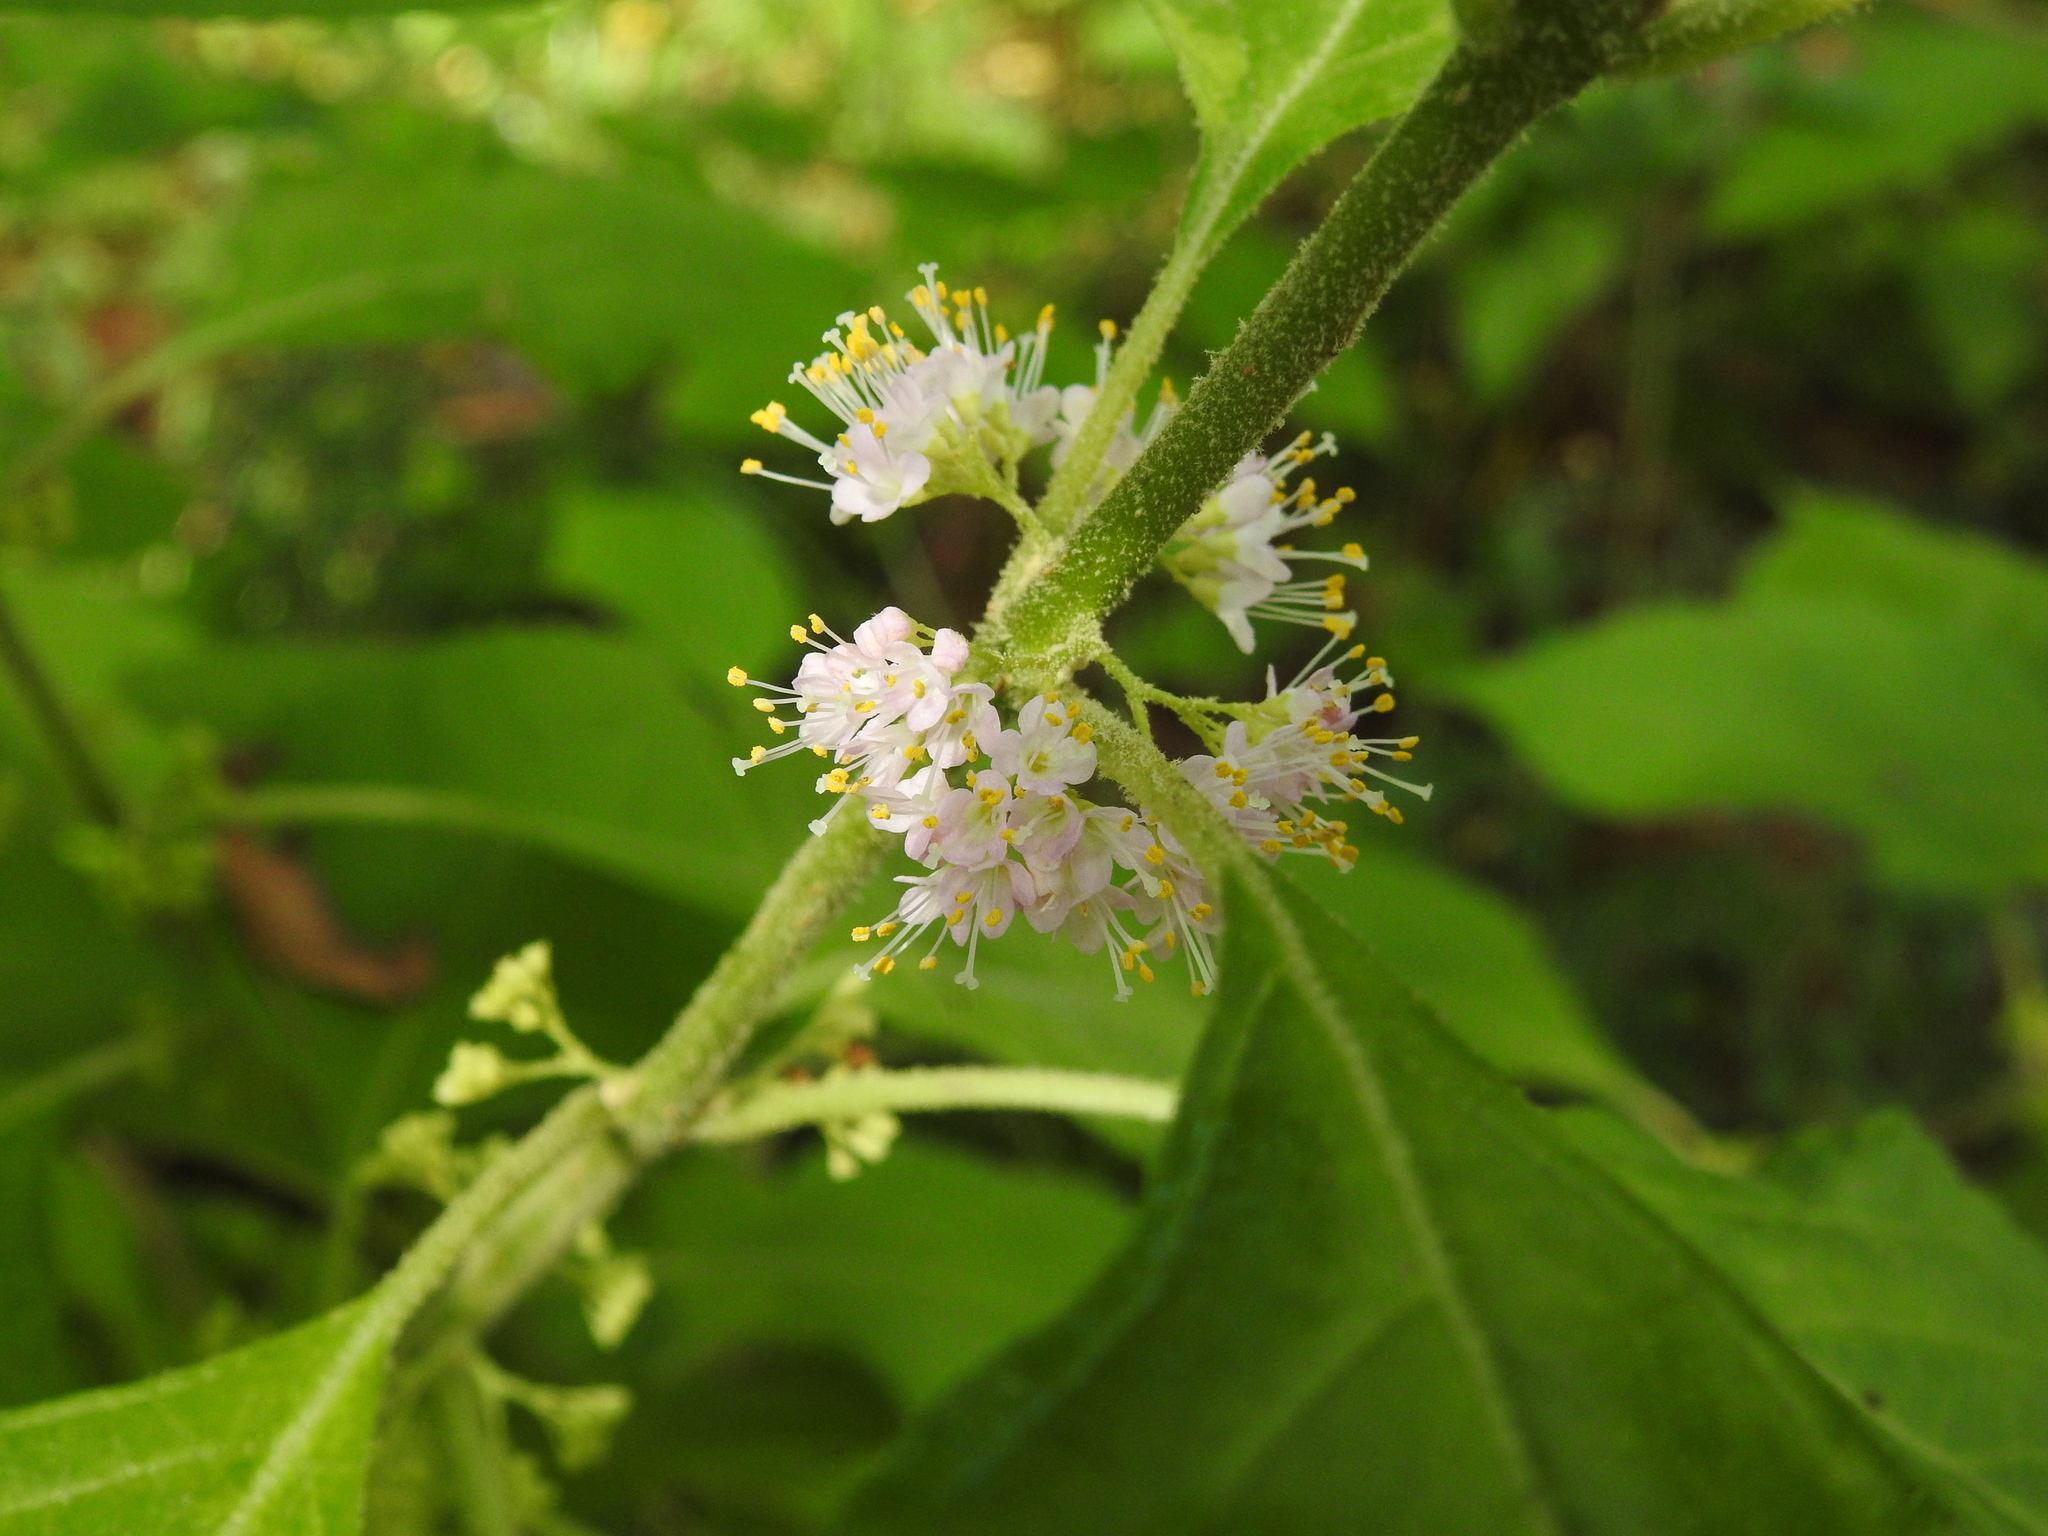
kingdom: Plantae
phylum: Tracheophyta
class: Magnoliopsida
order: Lamiales
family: Lamiaceae
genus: Callicarpa
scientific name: Callicarpa americana
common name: American beautyberry
